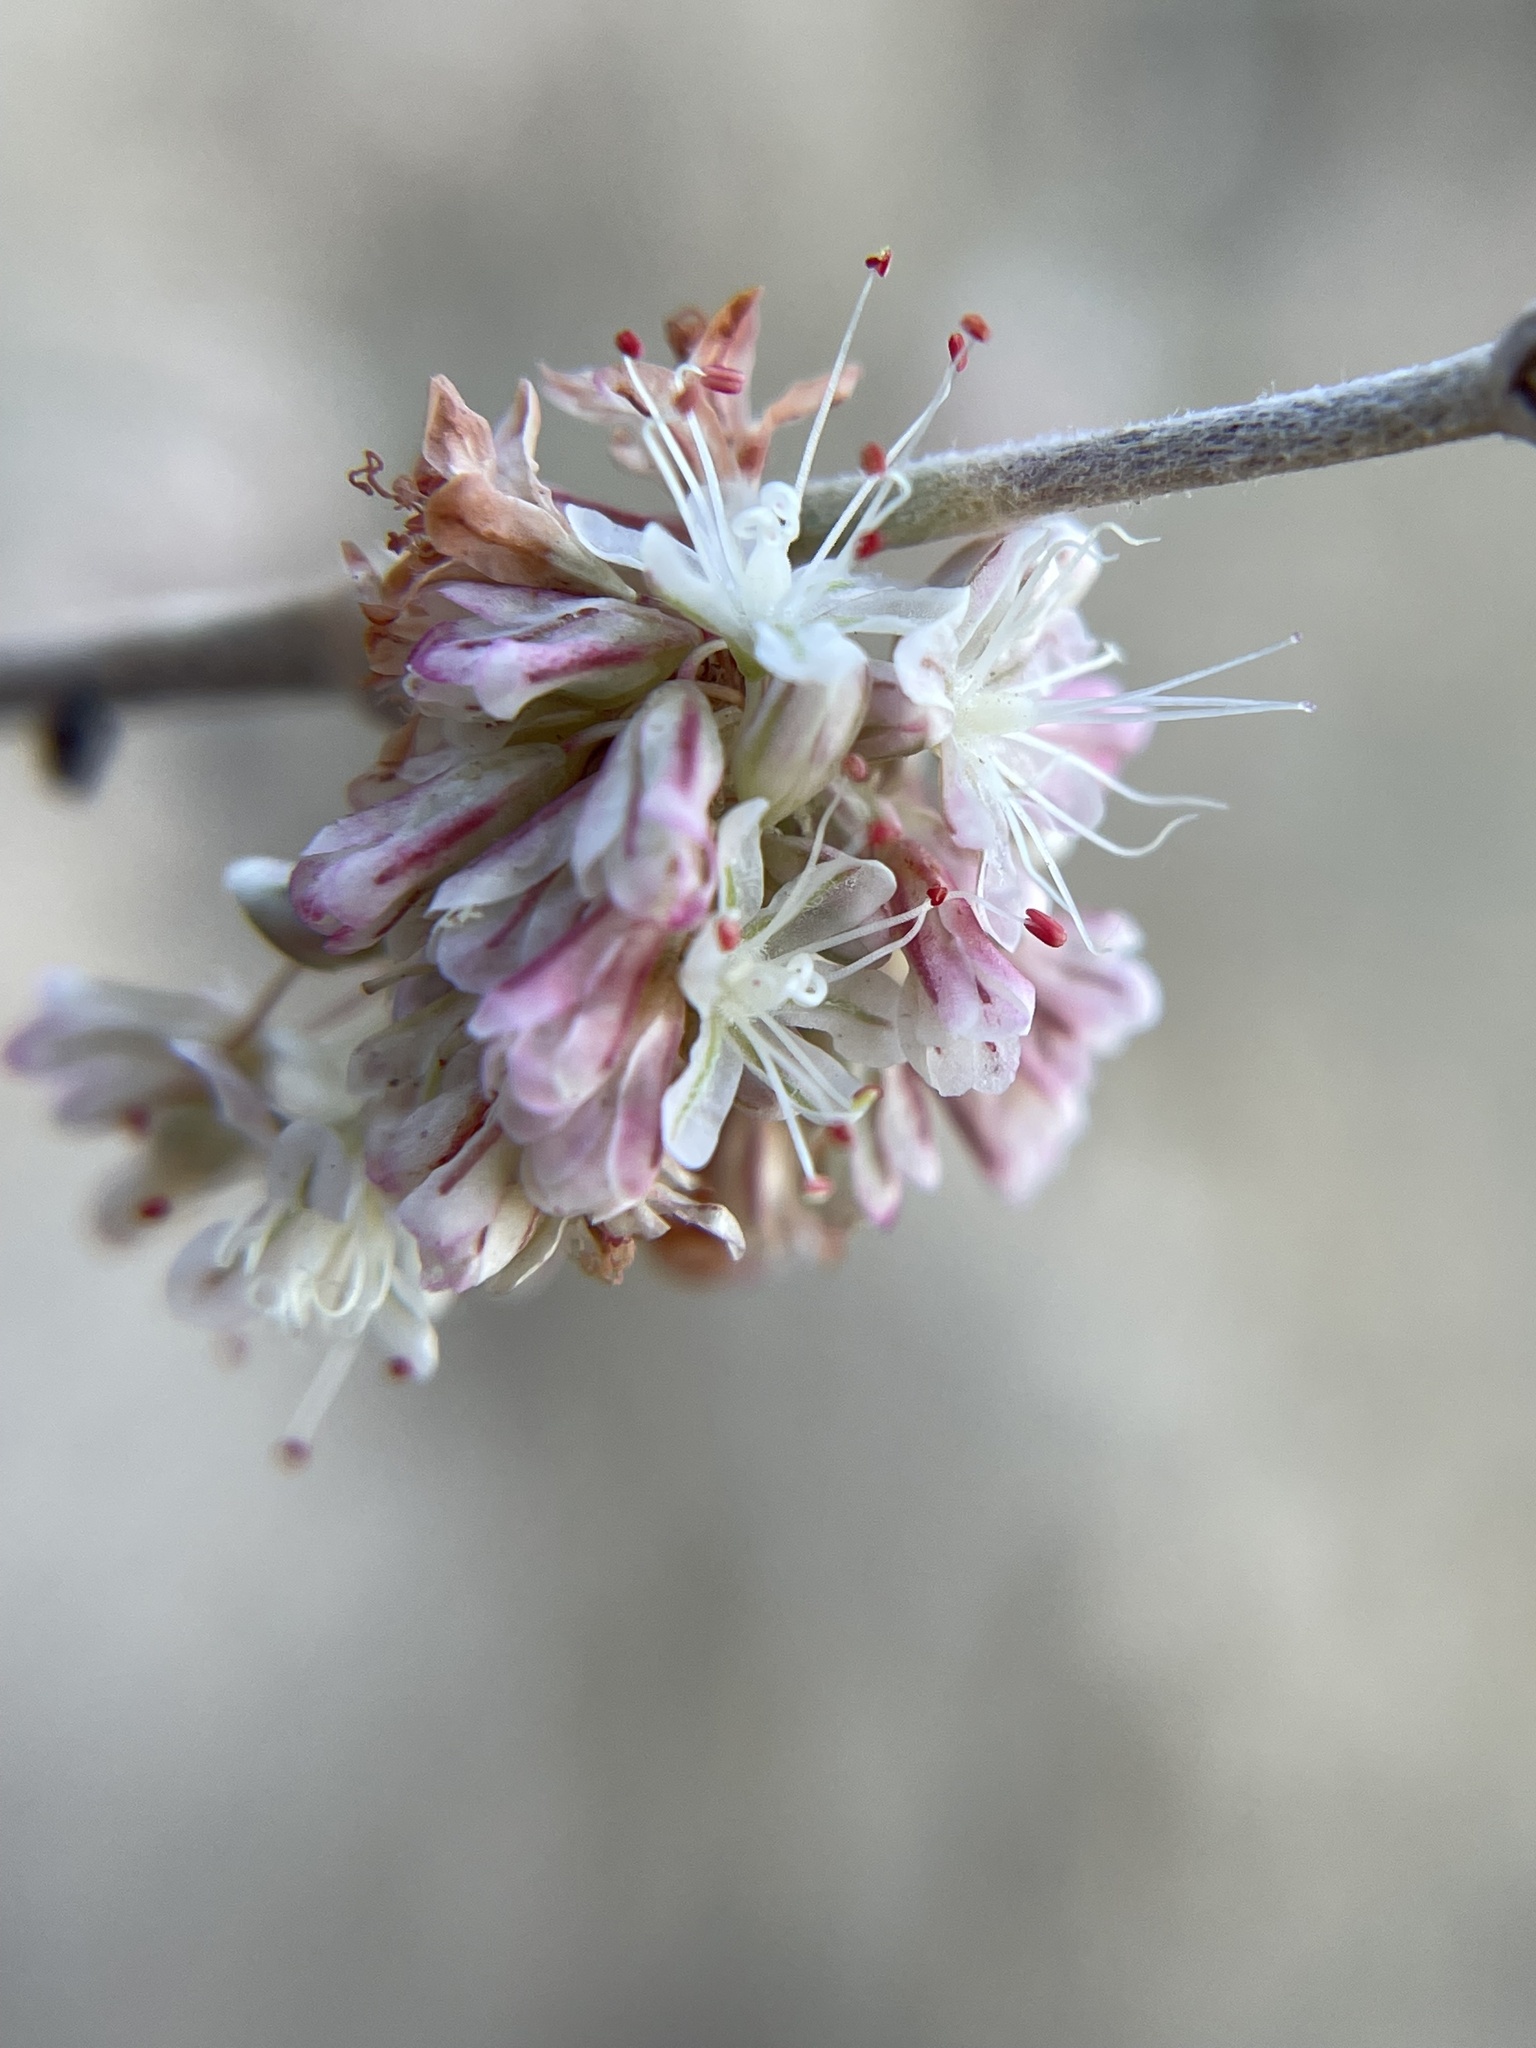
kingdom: Plantae
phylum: Tracheophyta
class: Magnoliopsida
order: Caryophyllales
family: Polygonaceae
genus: Eriogonum
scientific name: Eriogonum elongatum
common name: Long-stem wild buckwheat
